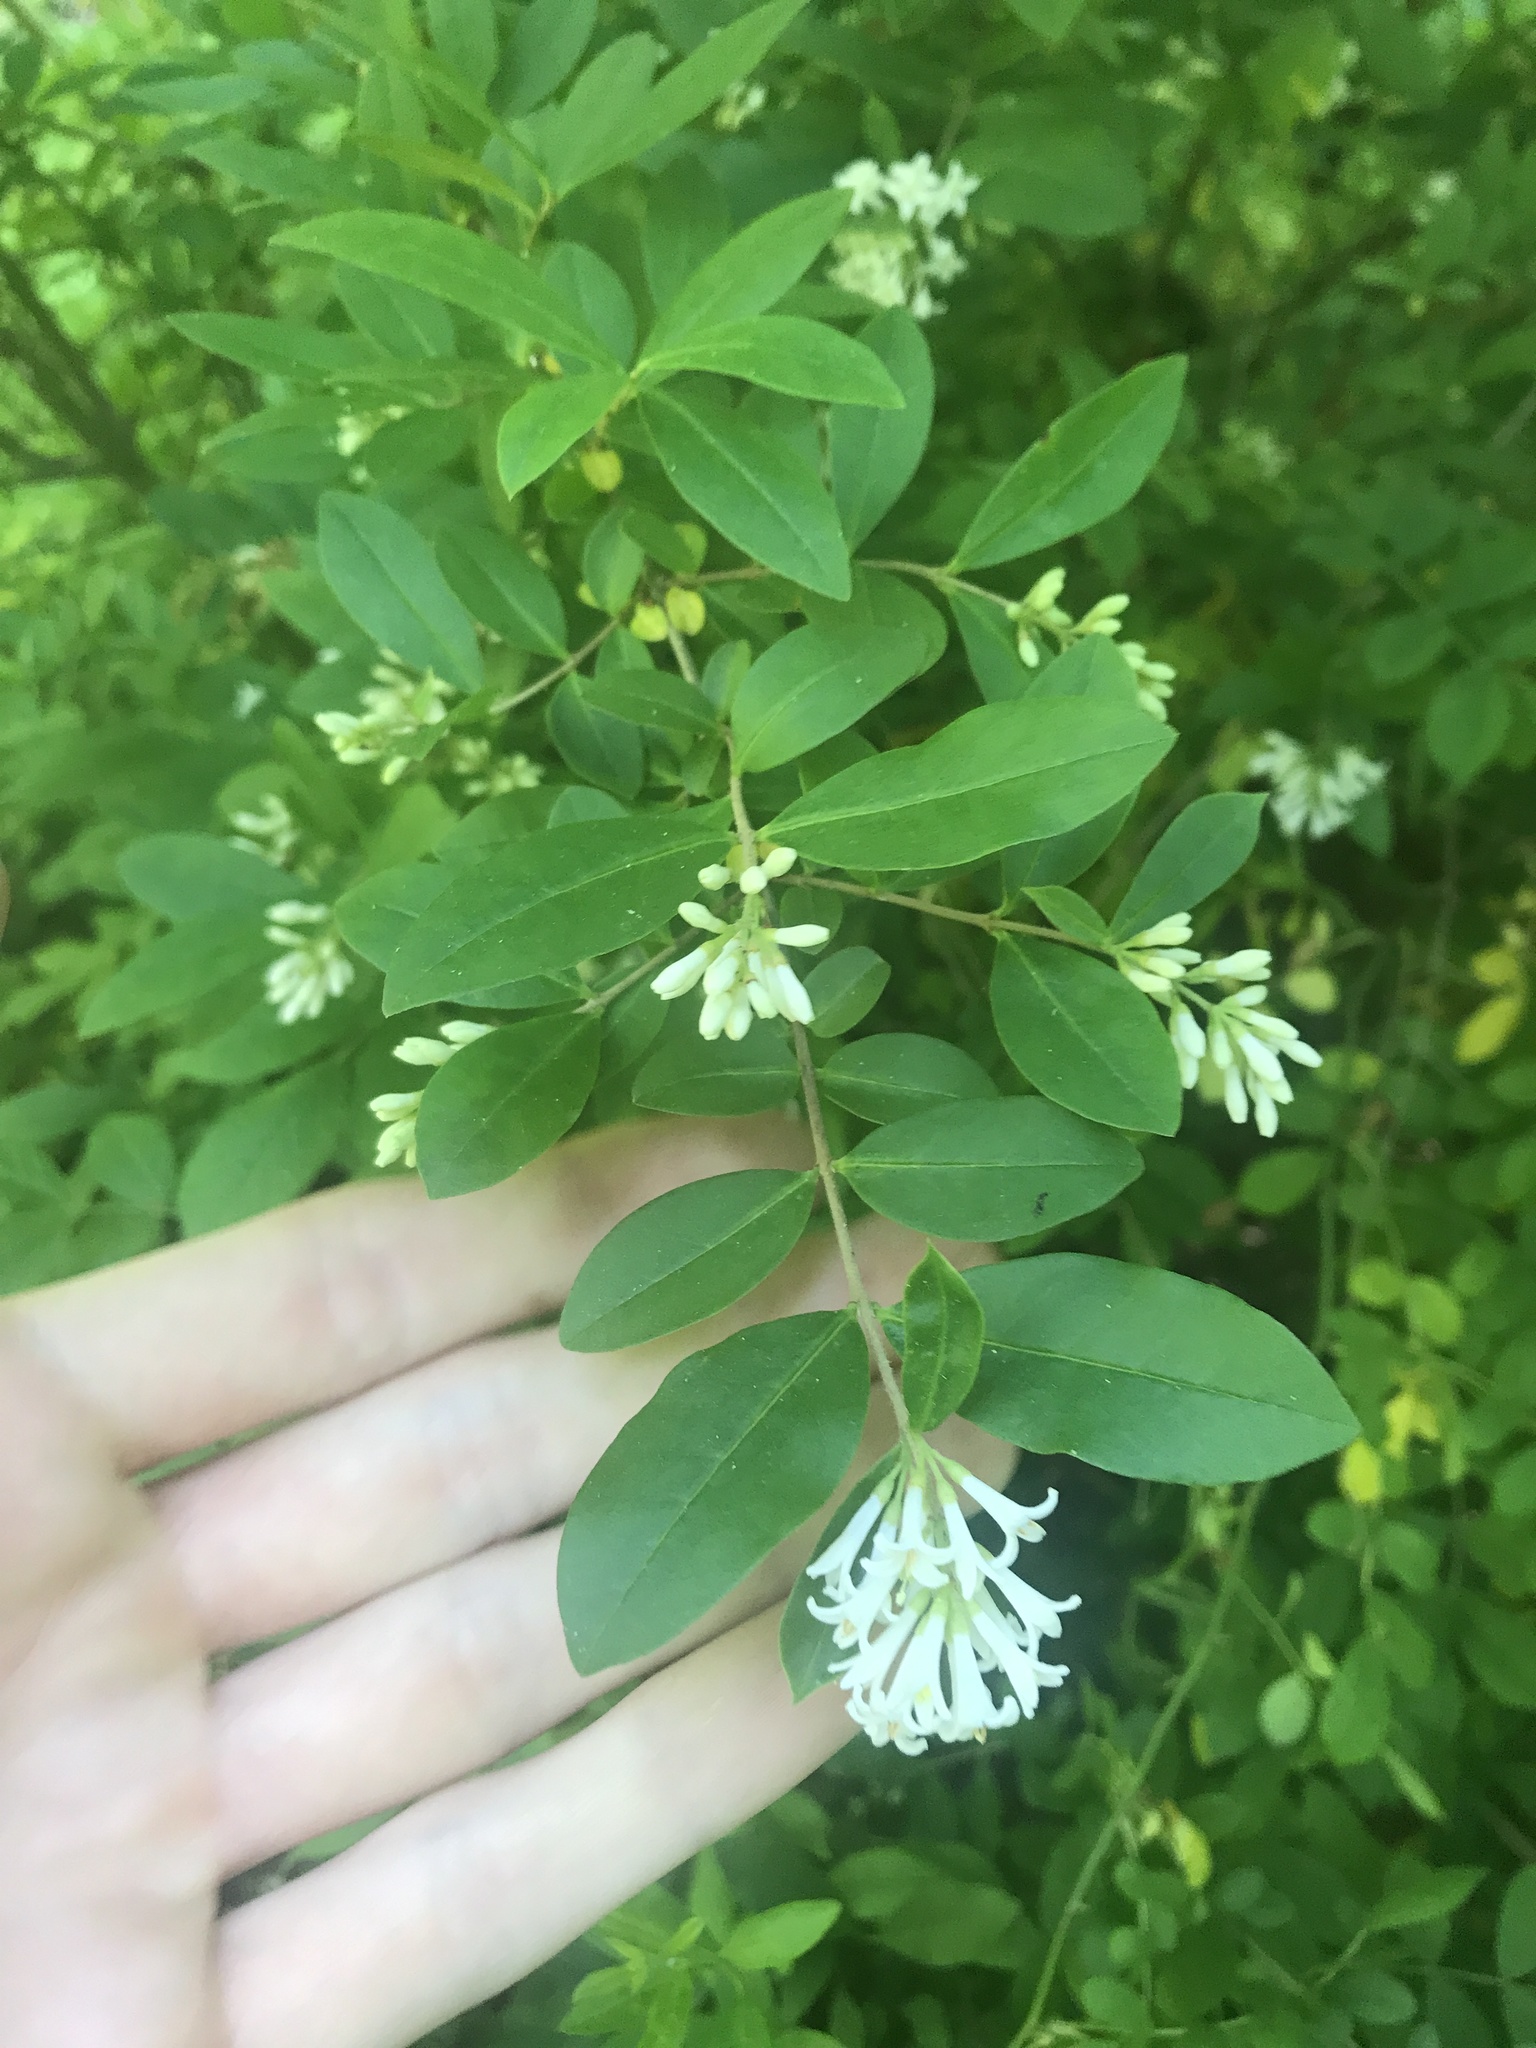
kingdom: Plantae
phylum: Tracheophyta
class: Magnoliopsida
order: Lamiales
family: Oleaceae
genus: Ligustrum
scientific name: Ligustrum obtusifolium
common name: Border privet
